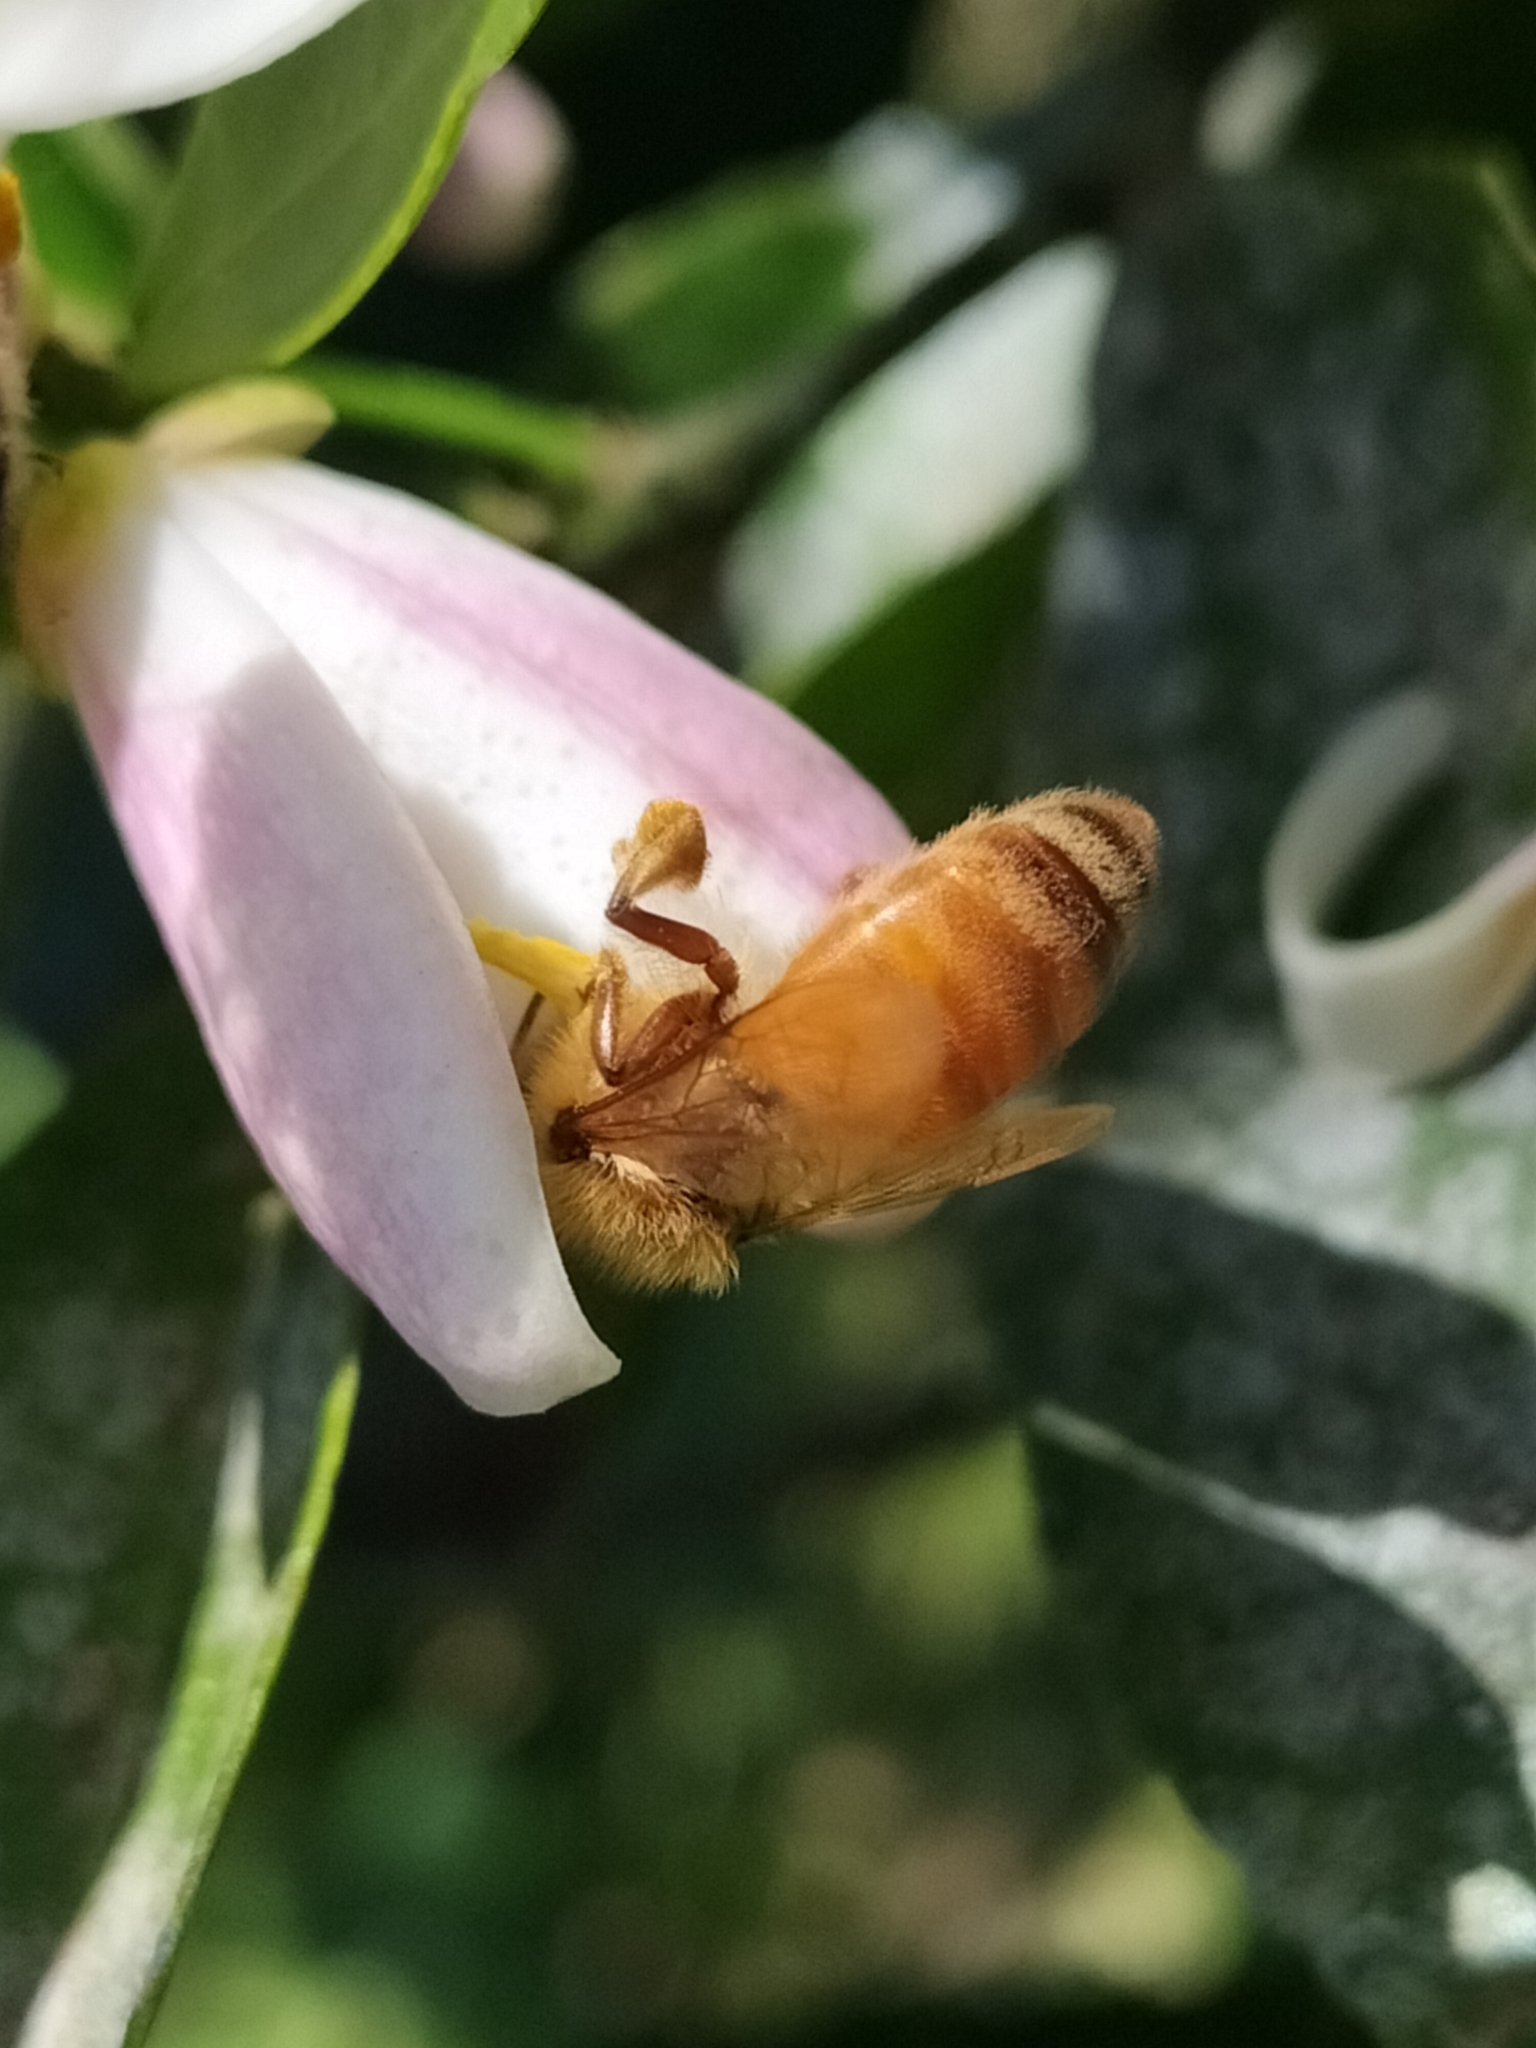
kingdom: Animalia
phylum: Arthropoda
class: Insecta
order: Hymenoptera
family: Apidae
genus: Apis
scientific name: Apis mellifera
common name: Honey bee
